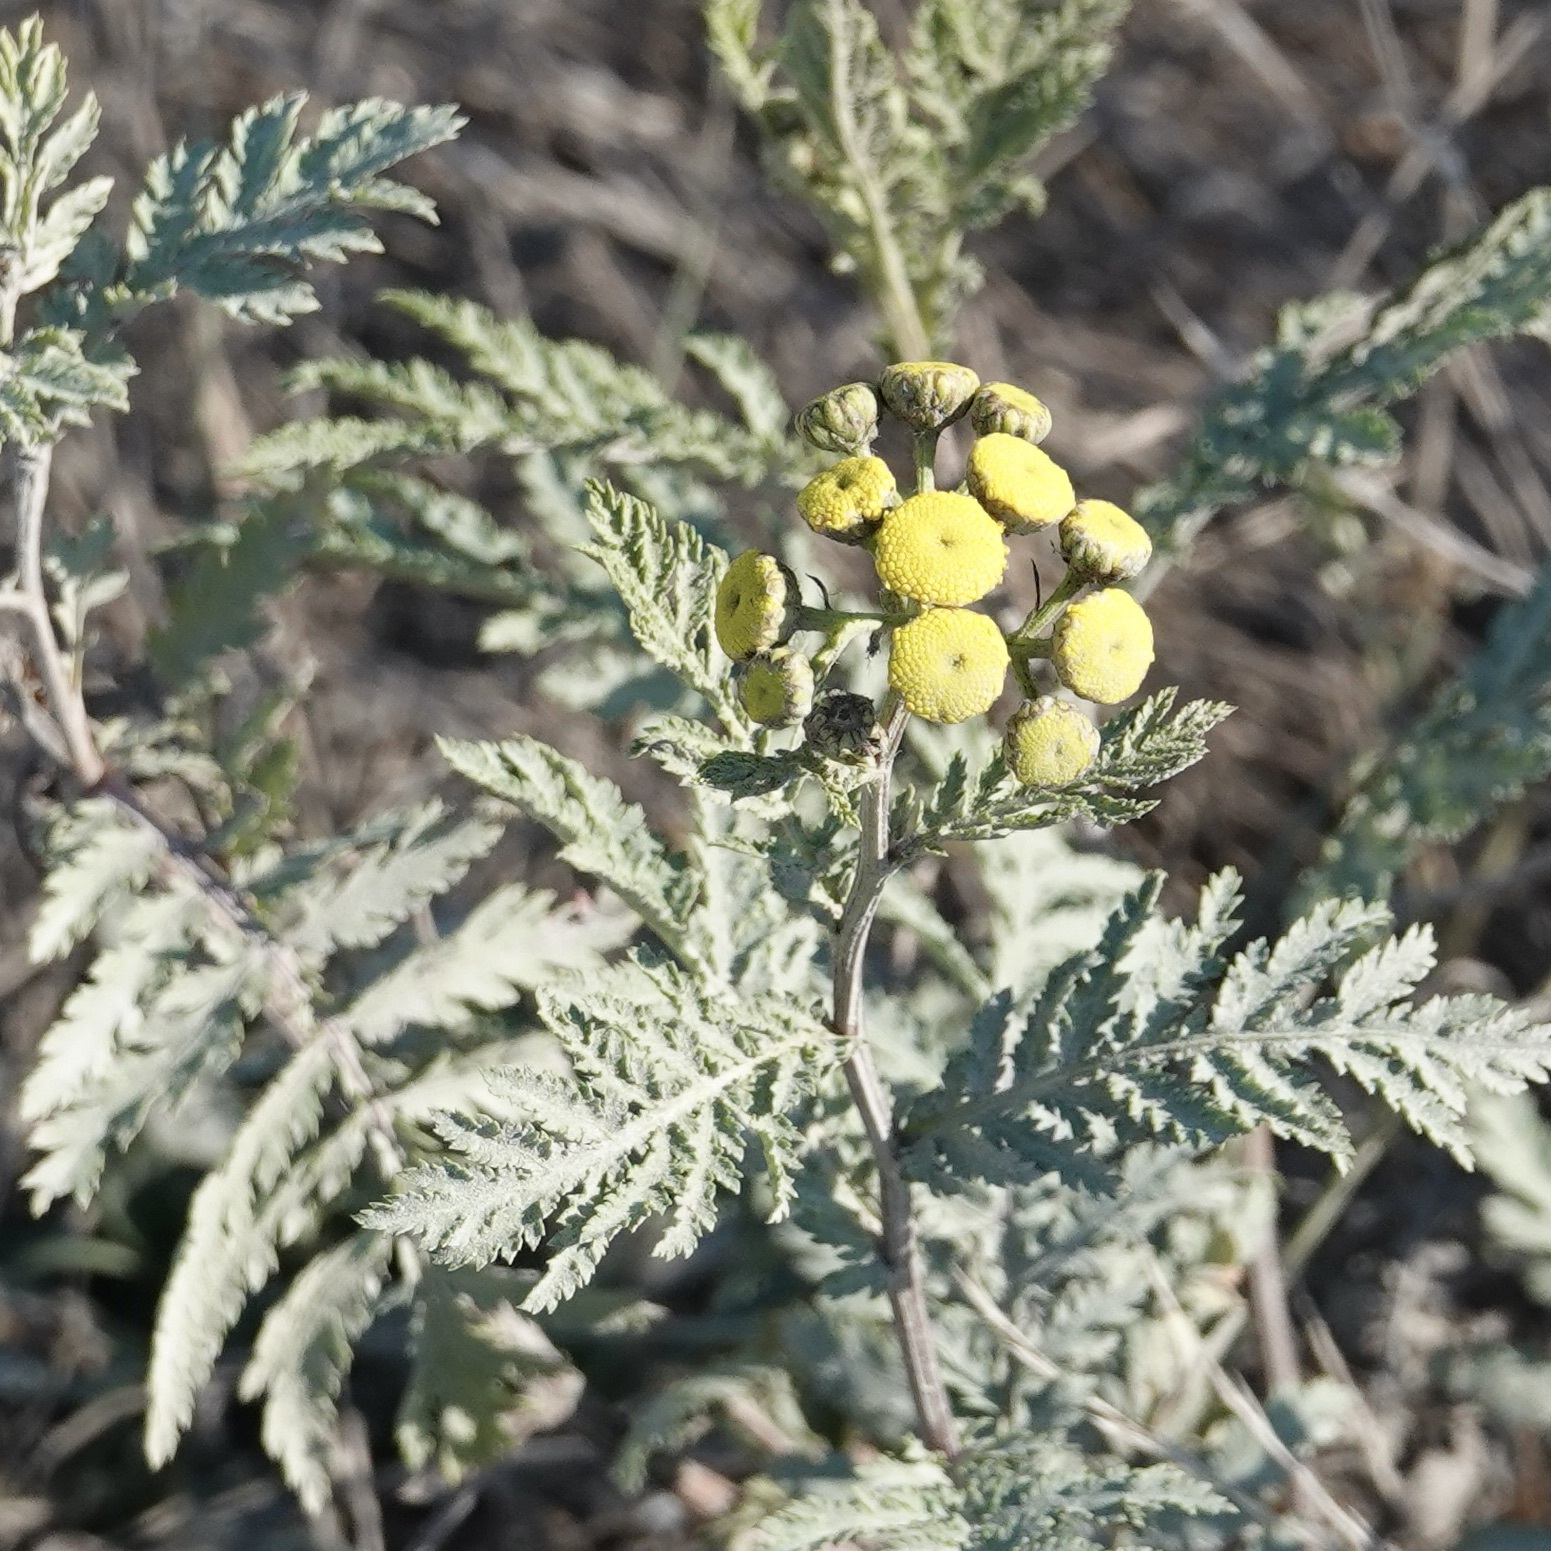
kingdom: Plantae
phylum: Tracheophyta
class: Magnoliopsida
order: Asterales
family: Asteraceae
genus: Tanacetum
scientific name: Tanacetum vulgare
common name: Common tansy
